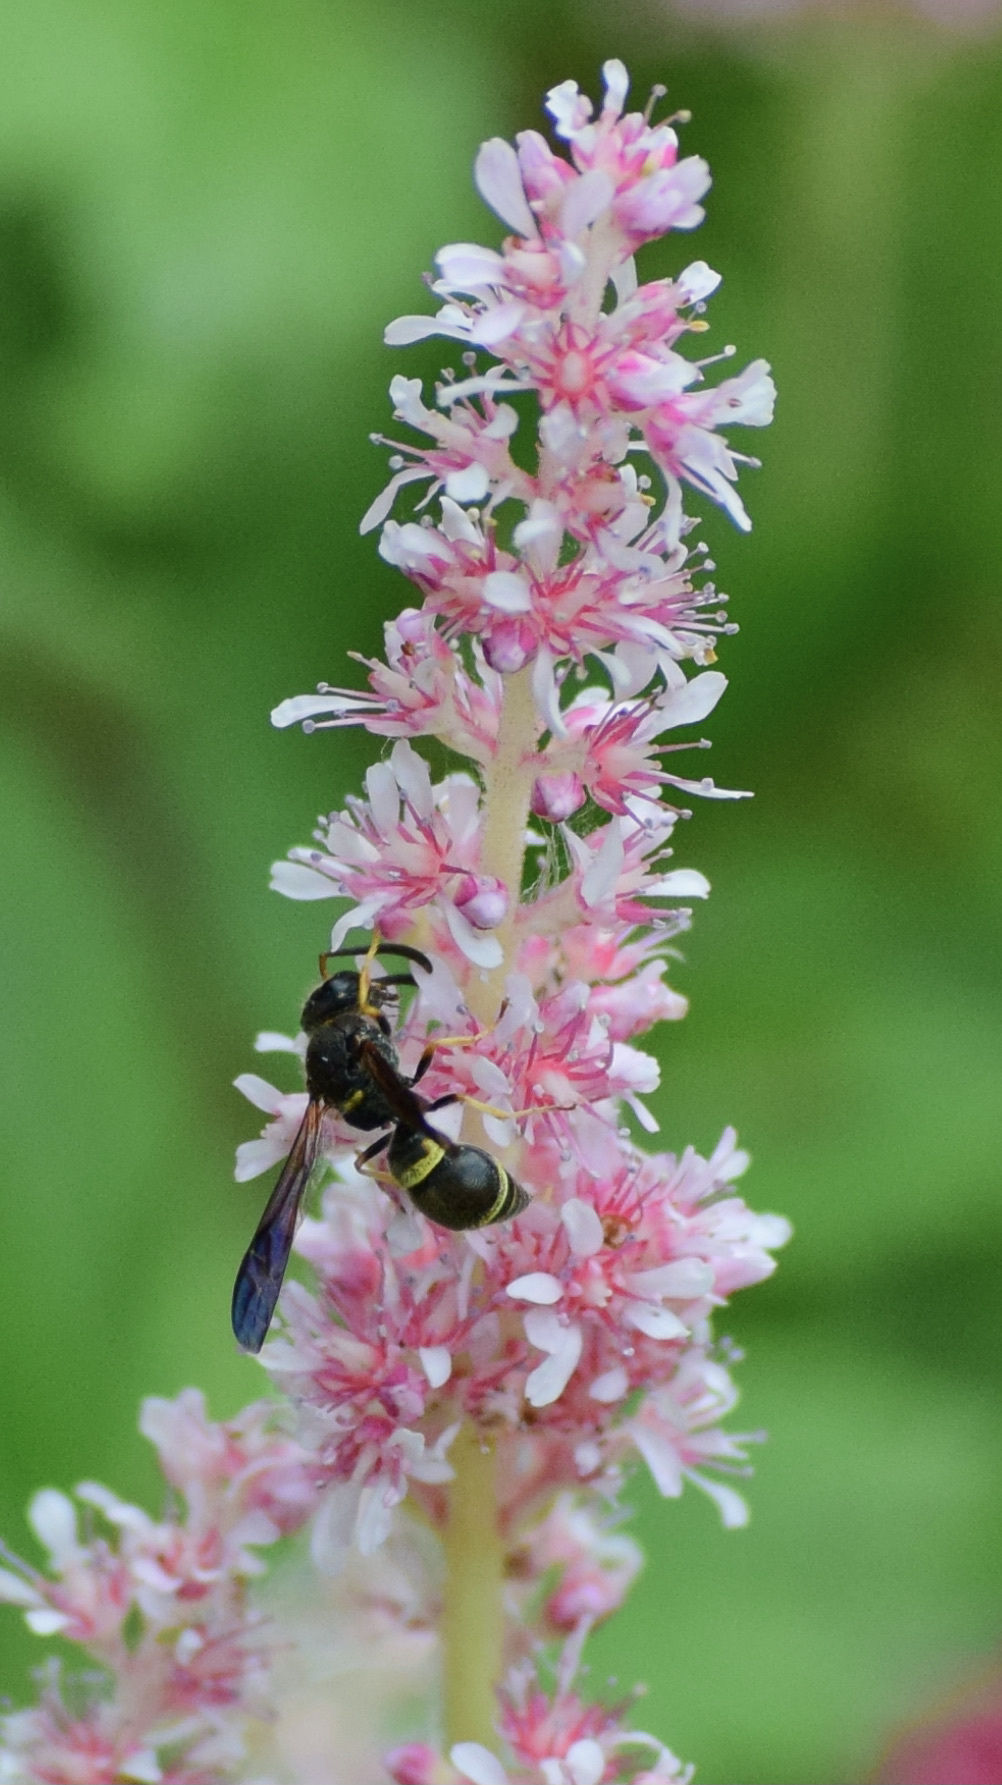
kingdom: Animalia
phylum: Arthropoda
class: Insecta
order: Hymenoptera
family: Vespidae
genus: Ancistrocerus
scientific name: Ancistrocerus unifasciatus
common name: One-banded mason wasp
